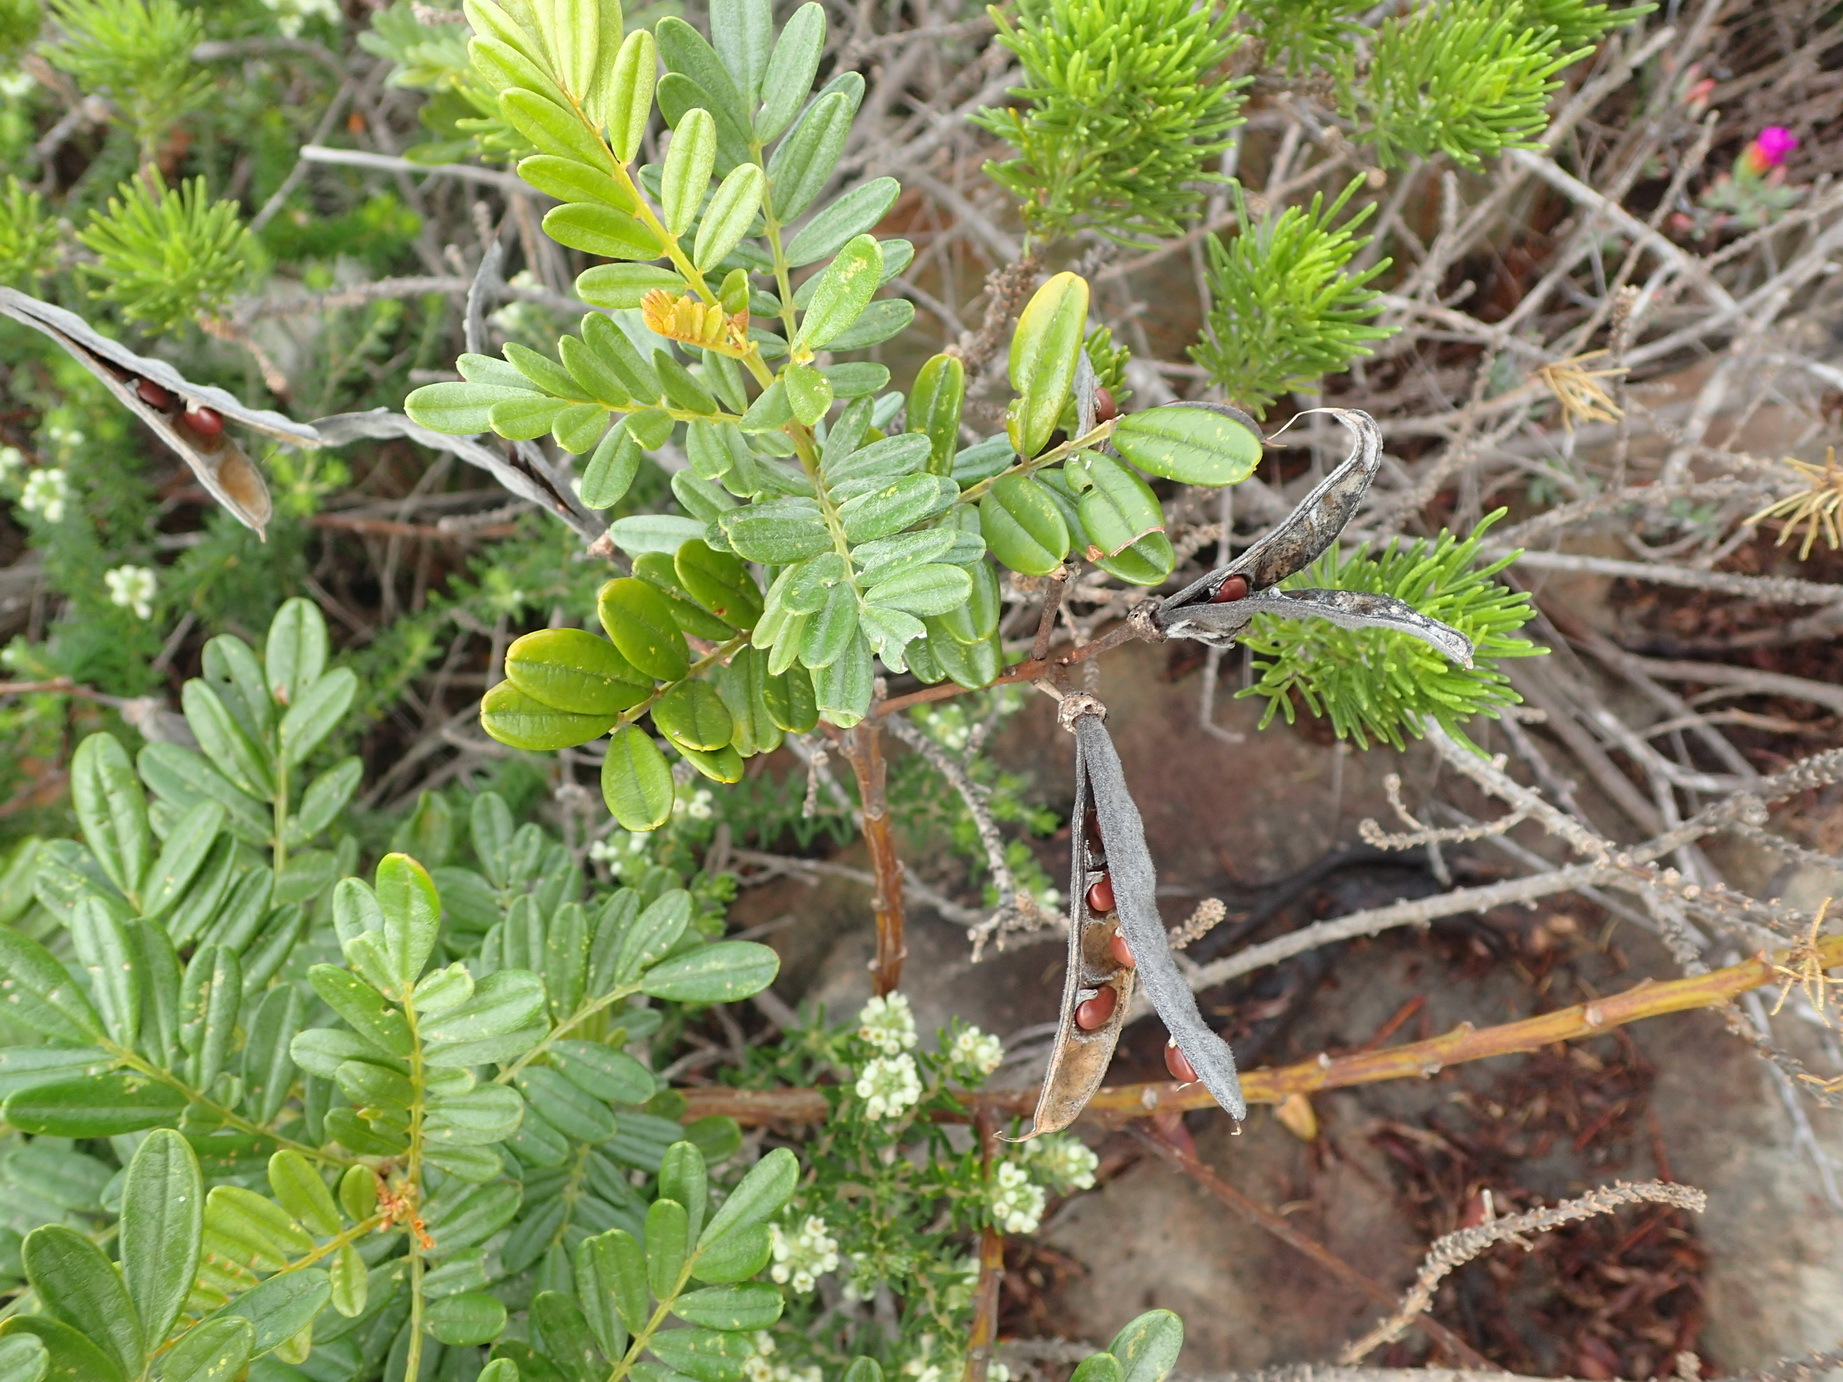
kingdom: Plantae
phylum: Tracheophyta
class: Magnoliopsida
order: Fabales
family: Fabaceae
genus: Virgilia
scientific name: Virgilia divaricata
